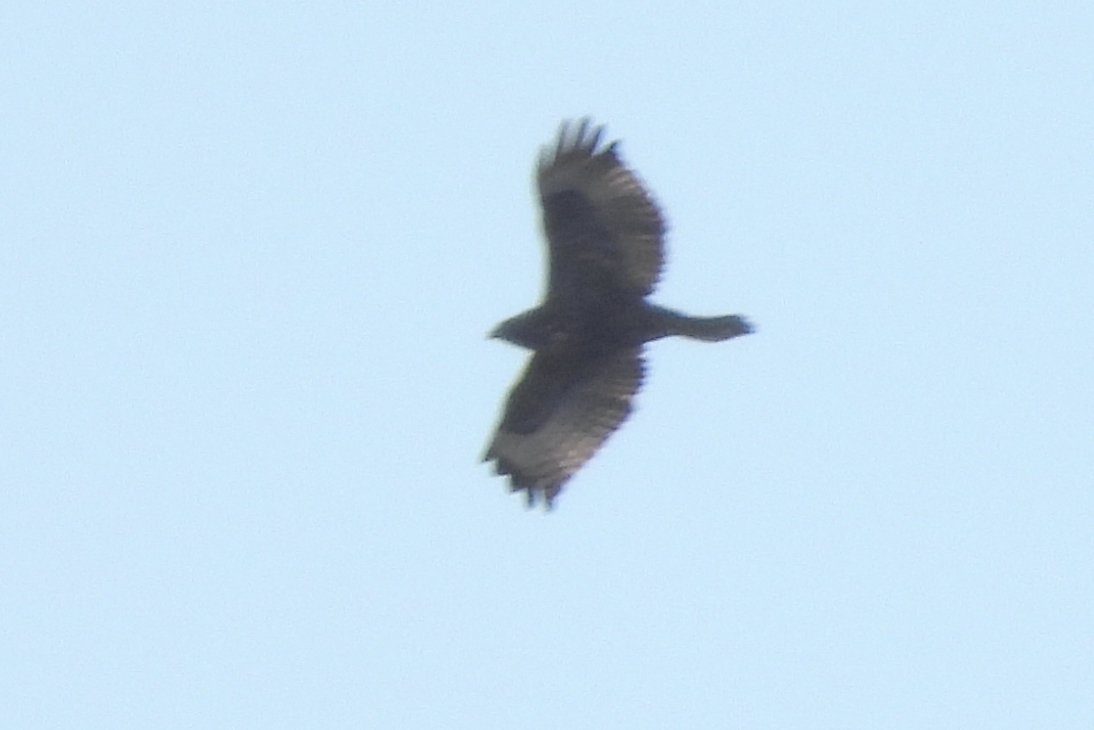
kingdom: Animalia
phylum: Chordata
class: Aves
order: Accipitriformes
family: Accipitridae
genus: Buteo
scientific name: Buteo jamaicensis
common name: Red-tailed hawk
